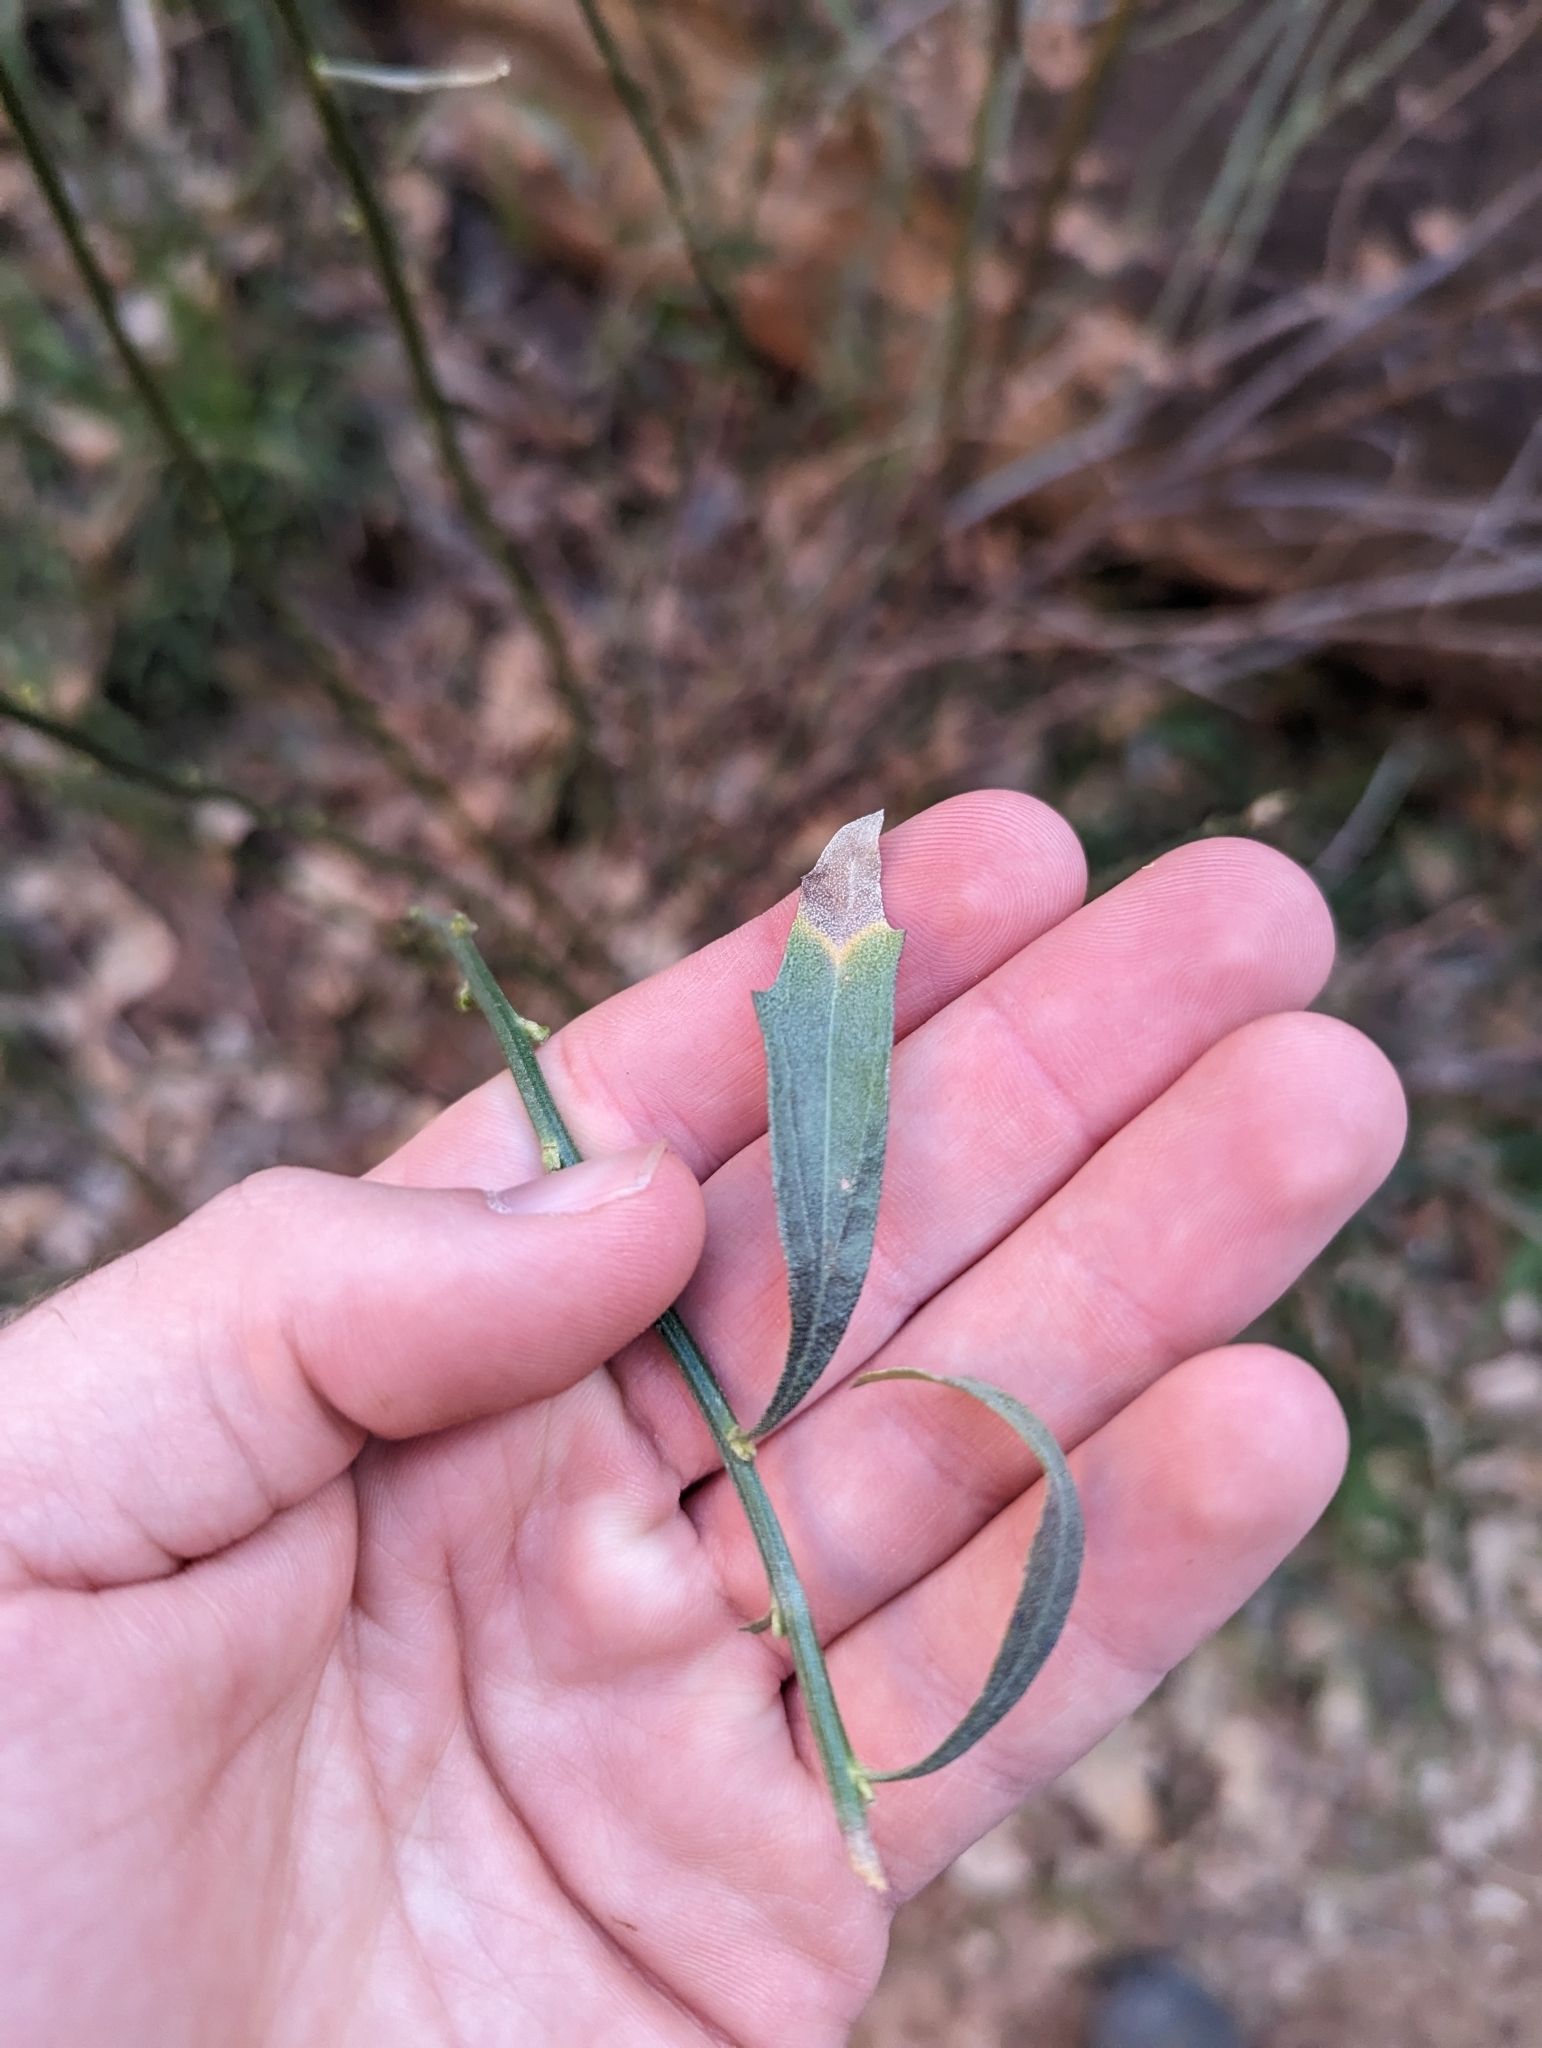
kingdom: Plantae
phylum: Tracheophyta
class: Magnoliopsida
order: Asterales
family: Asteraceae
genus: Baccharis
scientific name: Baccharis salicina
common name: Willow baccharis
